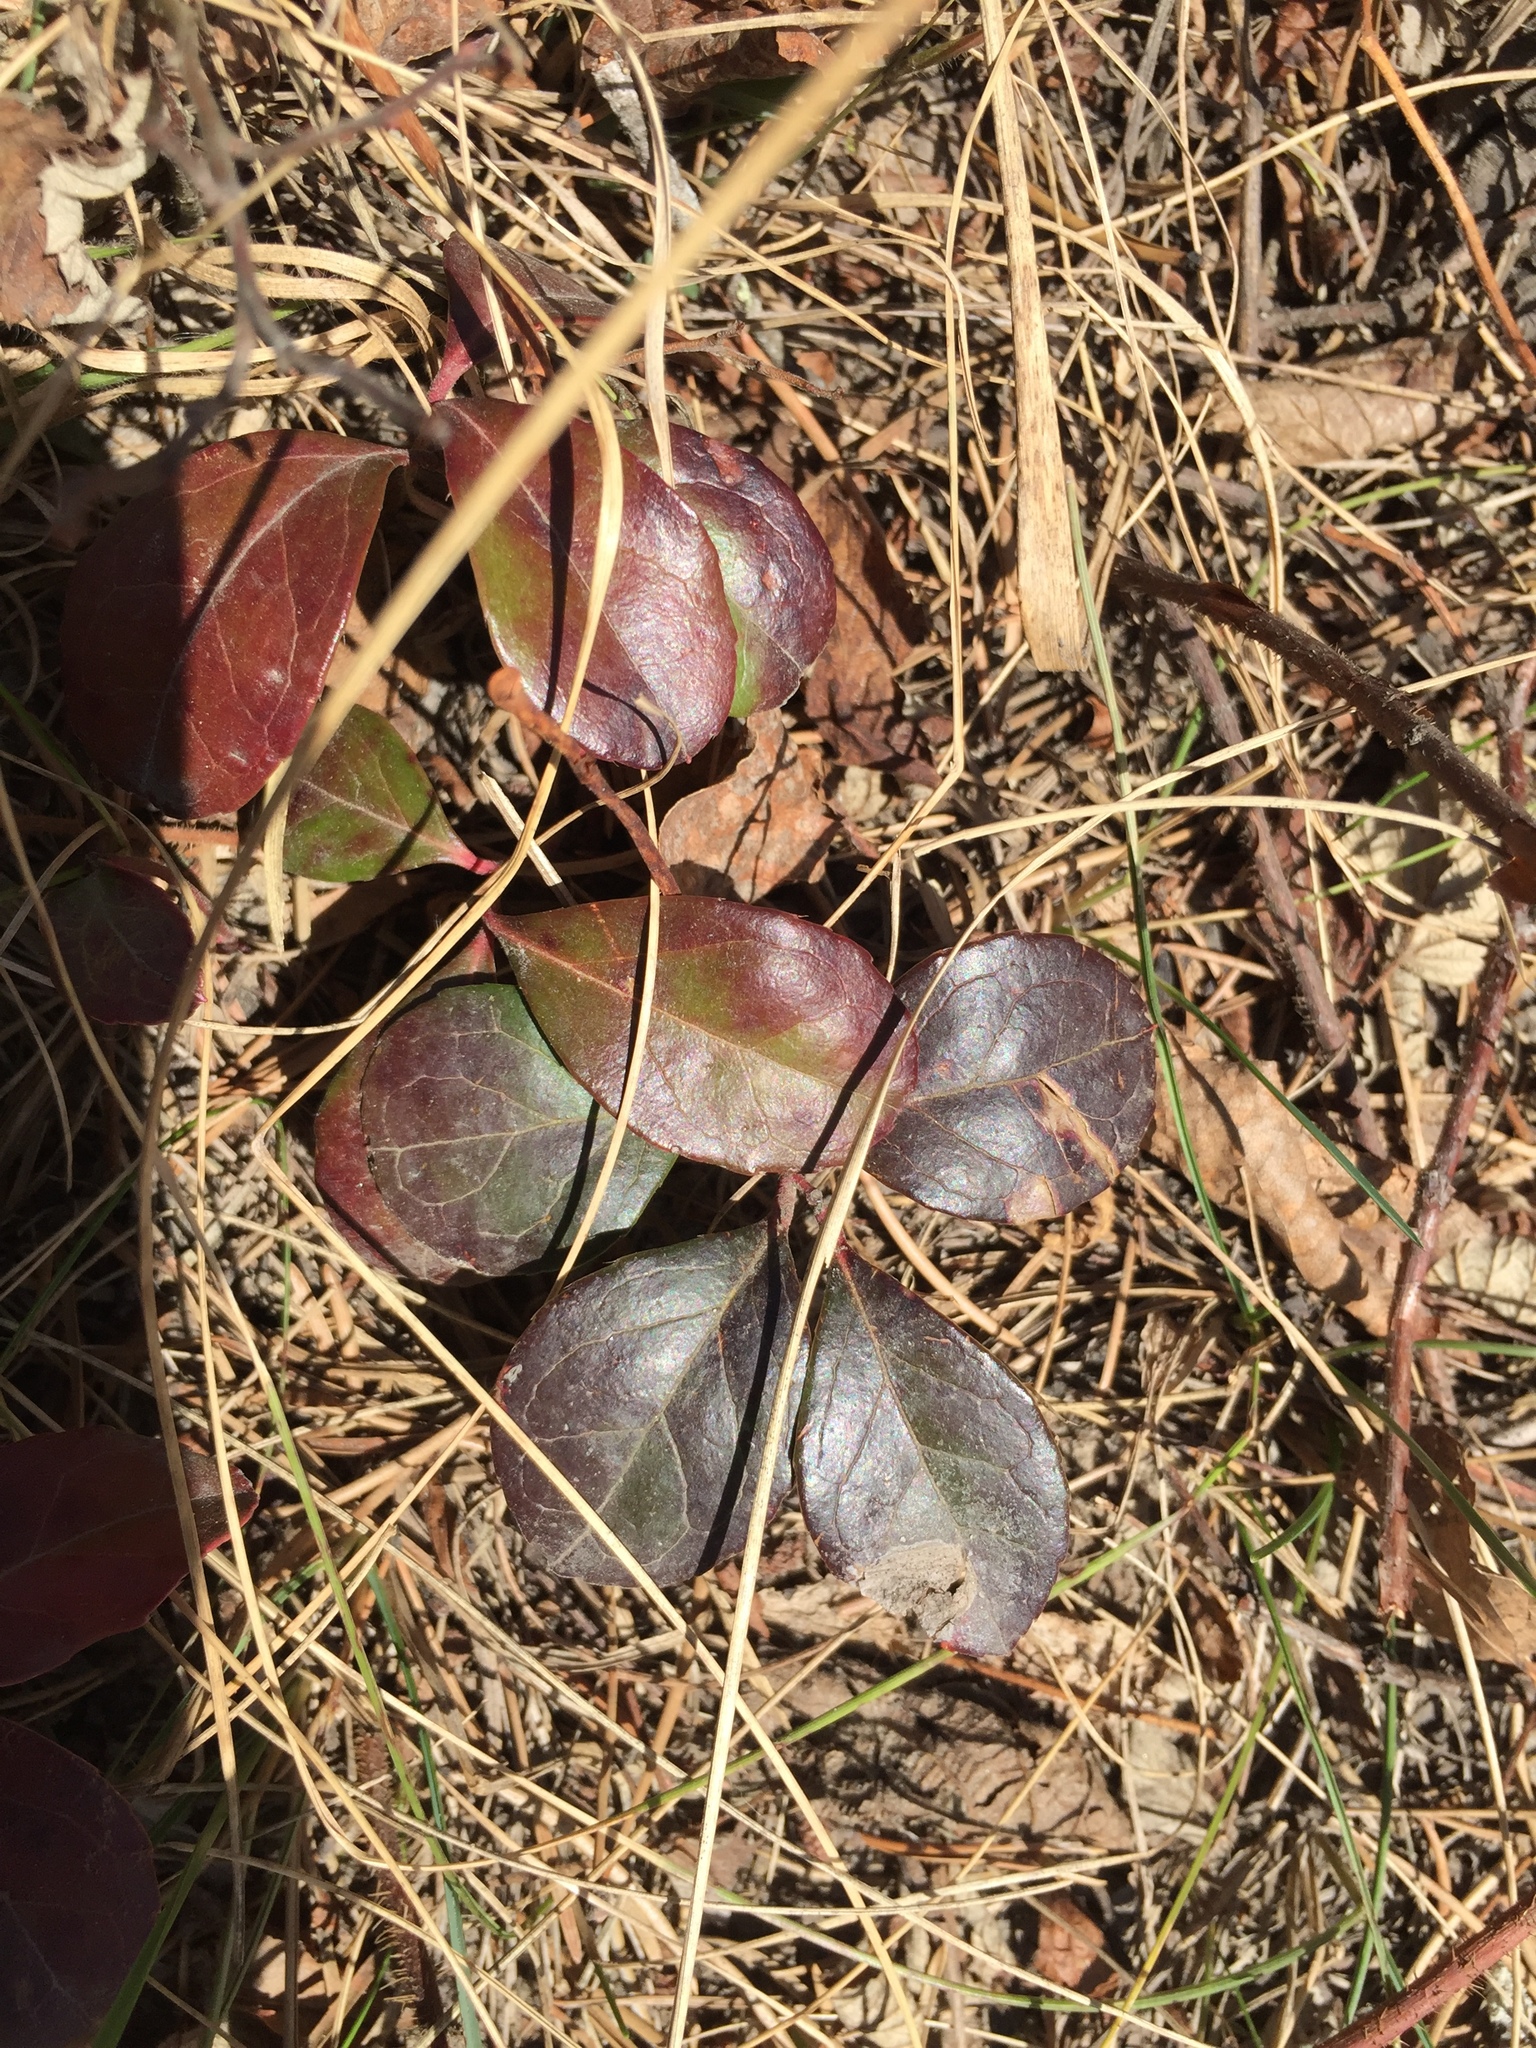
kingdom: Plantae
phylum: Tracheophyta
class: Magnoliopsida
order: Ericales
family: Ericaceae
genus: Gaultheria
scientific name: Gaultheria procumbens
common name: Checkerberry
